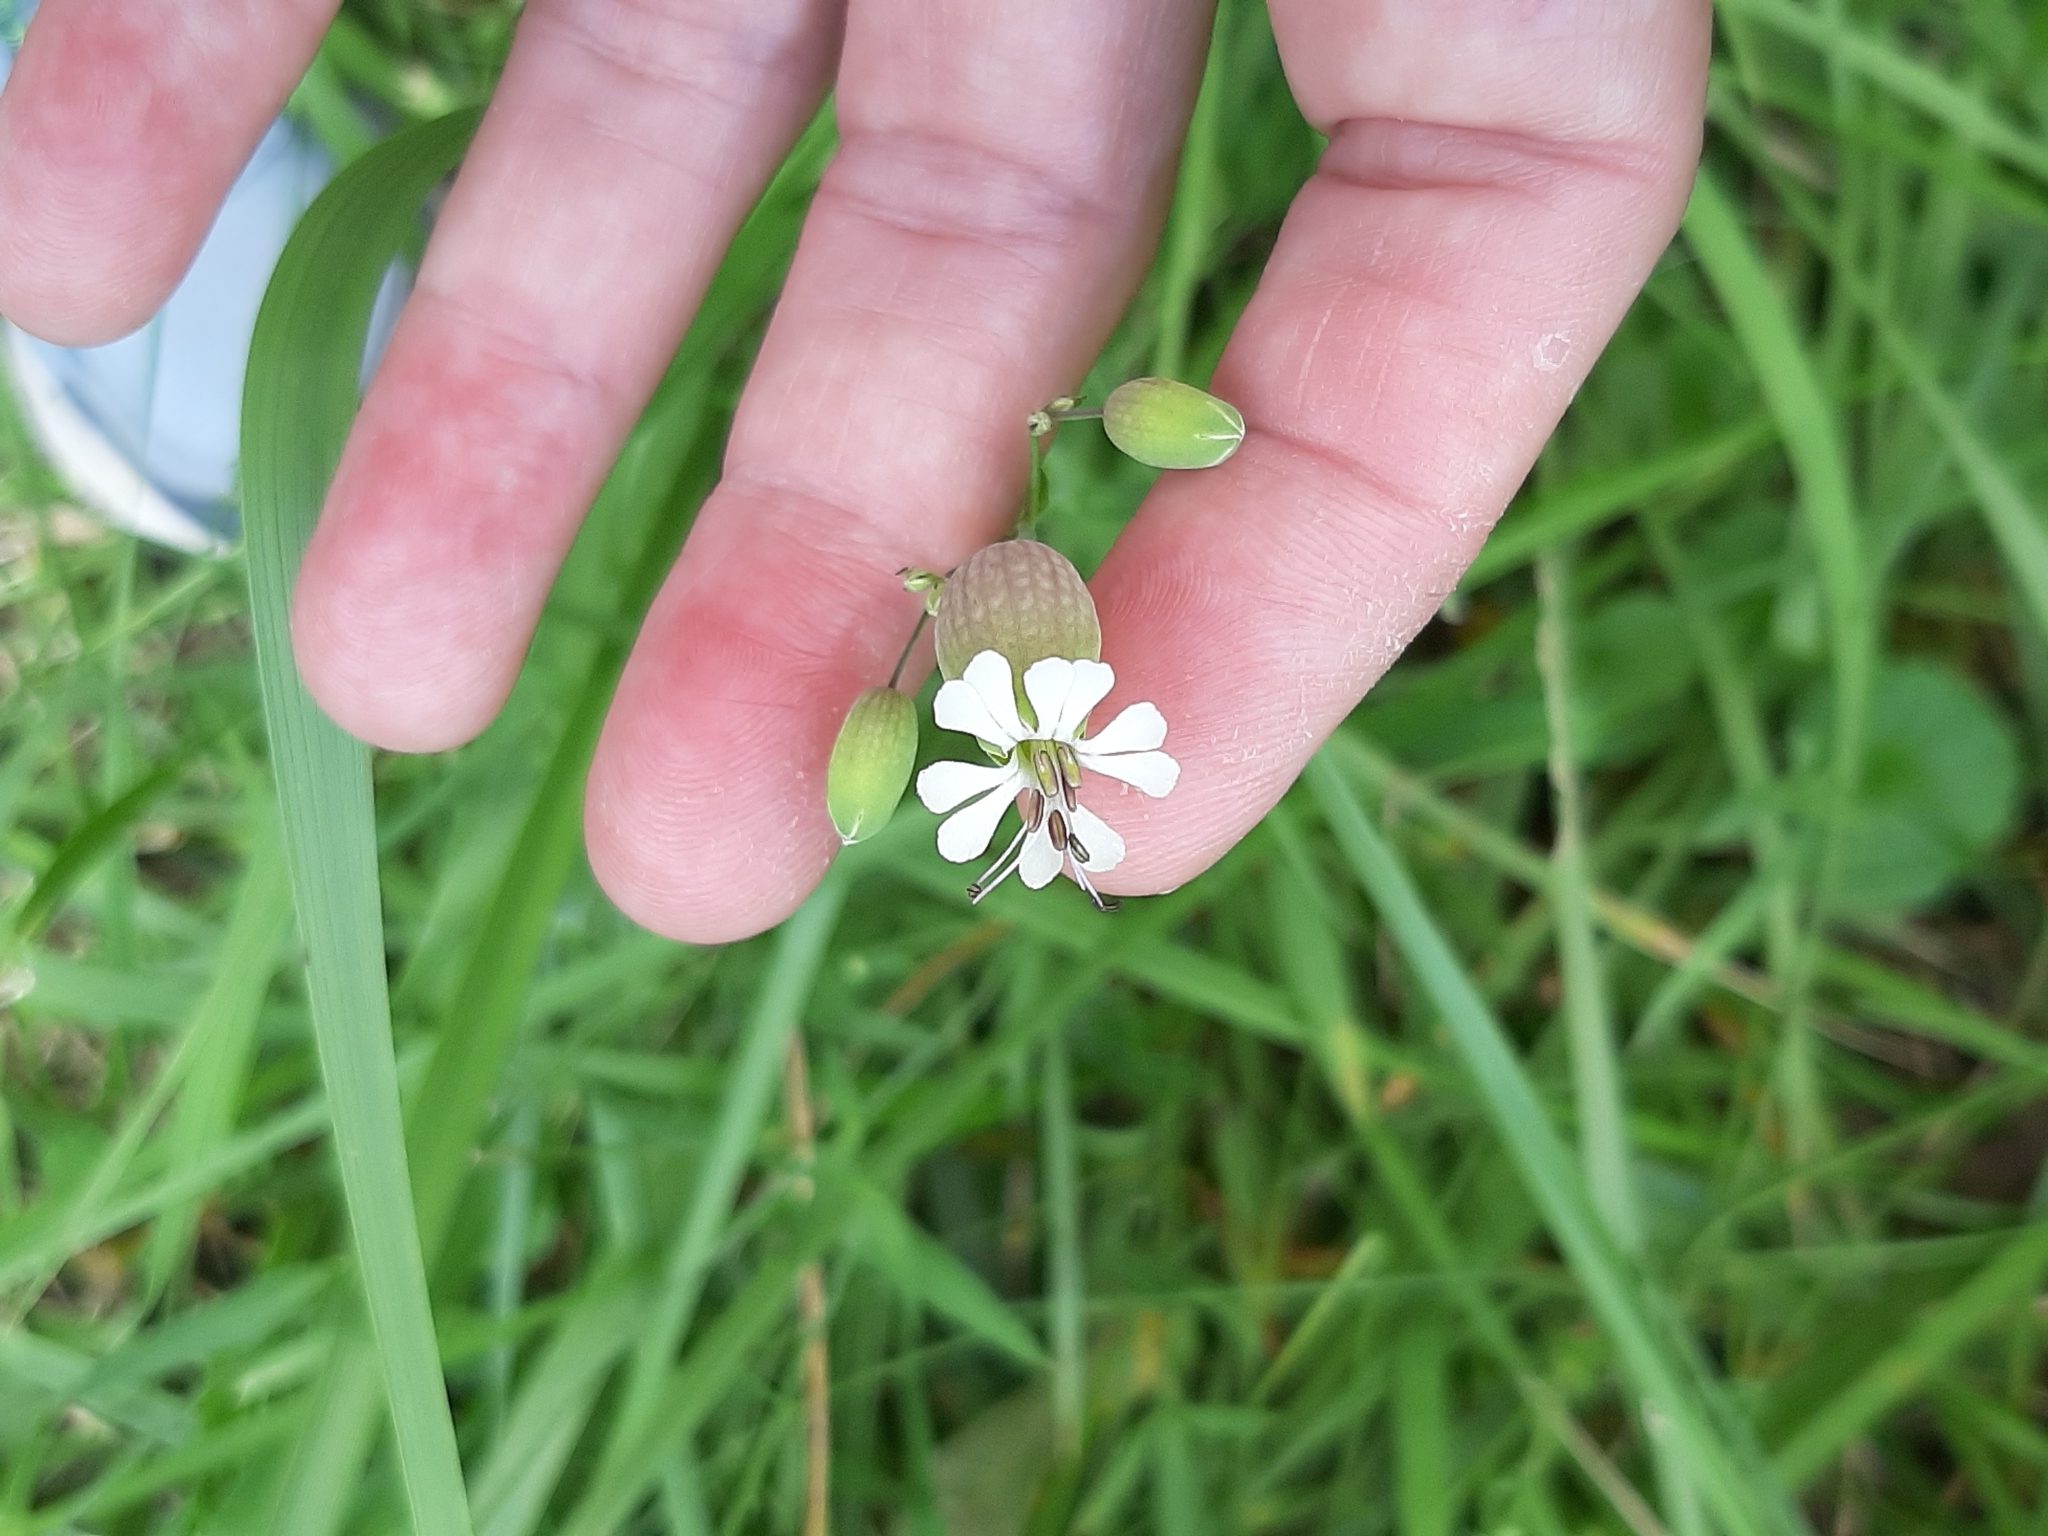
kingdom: Plantae
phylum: Tracheophyta
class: Magnoliopsida
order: Caryophyllales
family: Caryophyllaceae
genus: Silene
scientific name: Silene vulgaris
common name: Bladder campion
